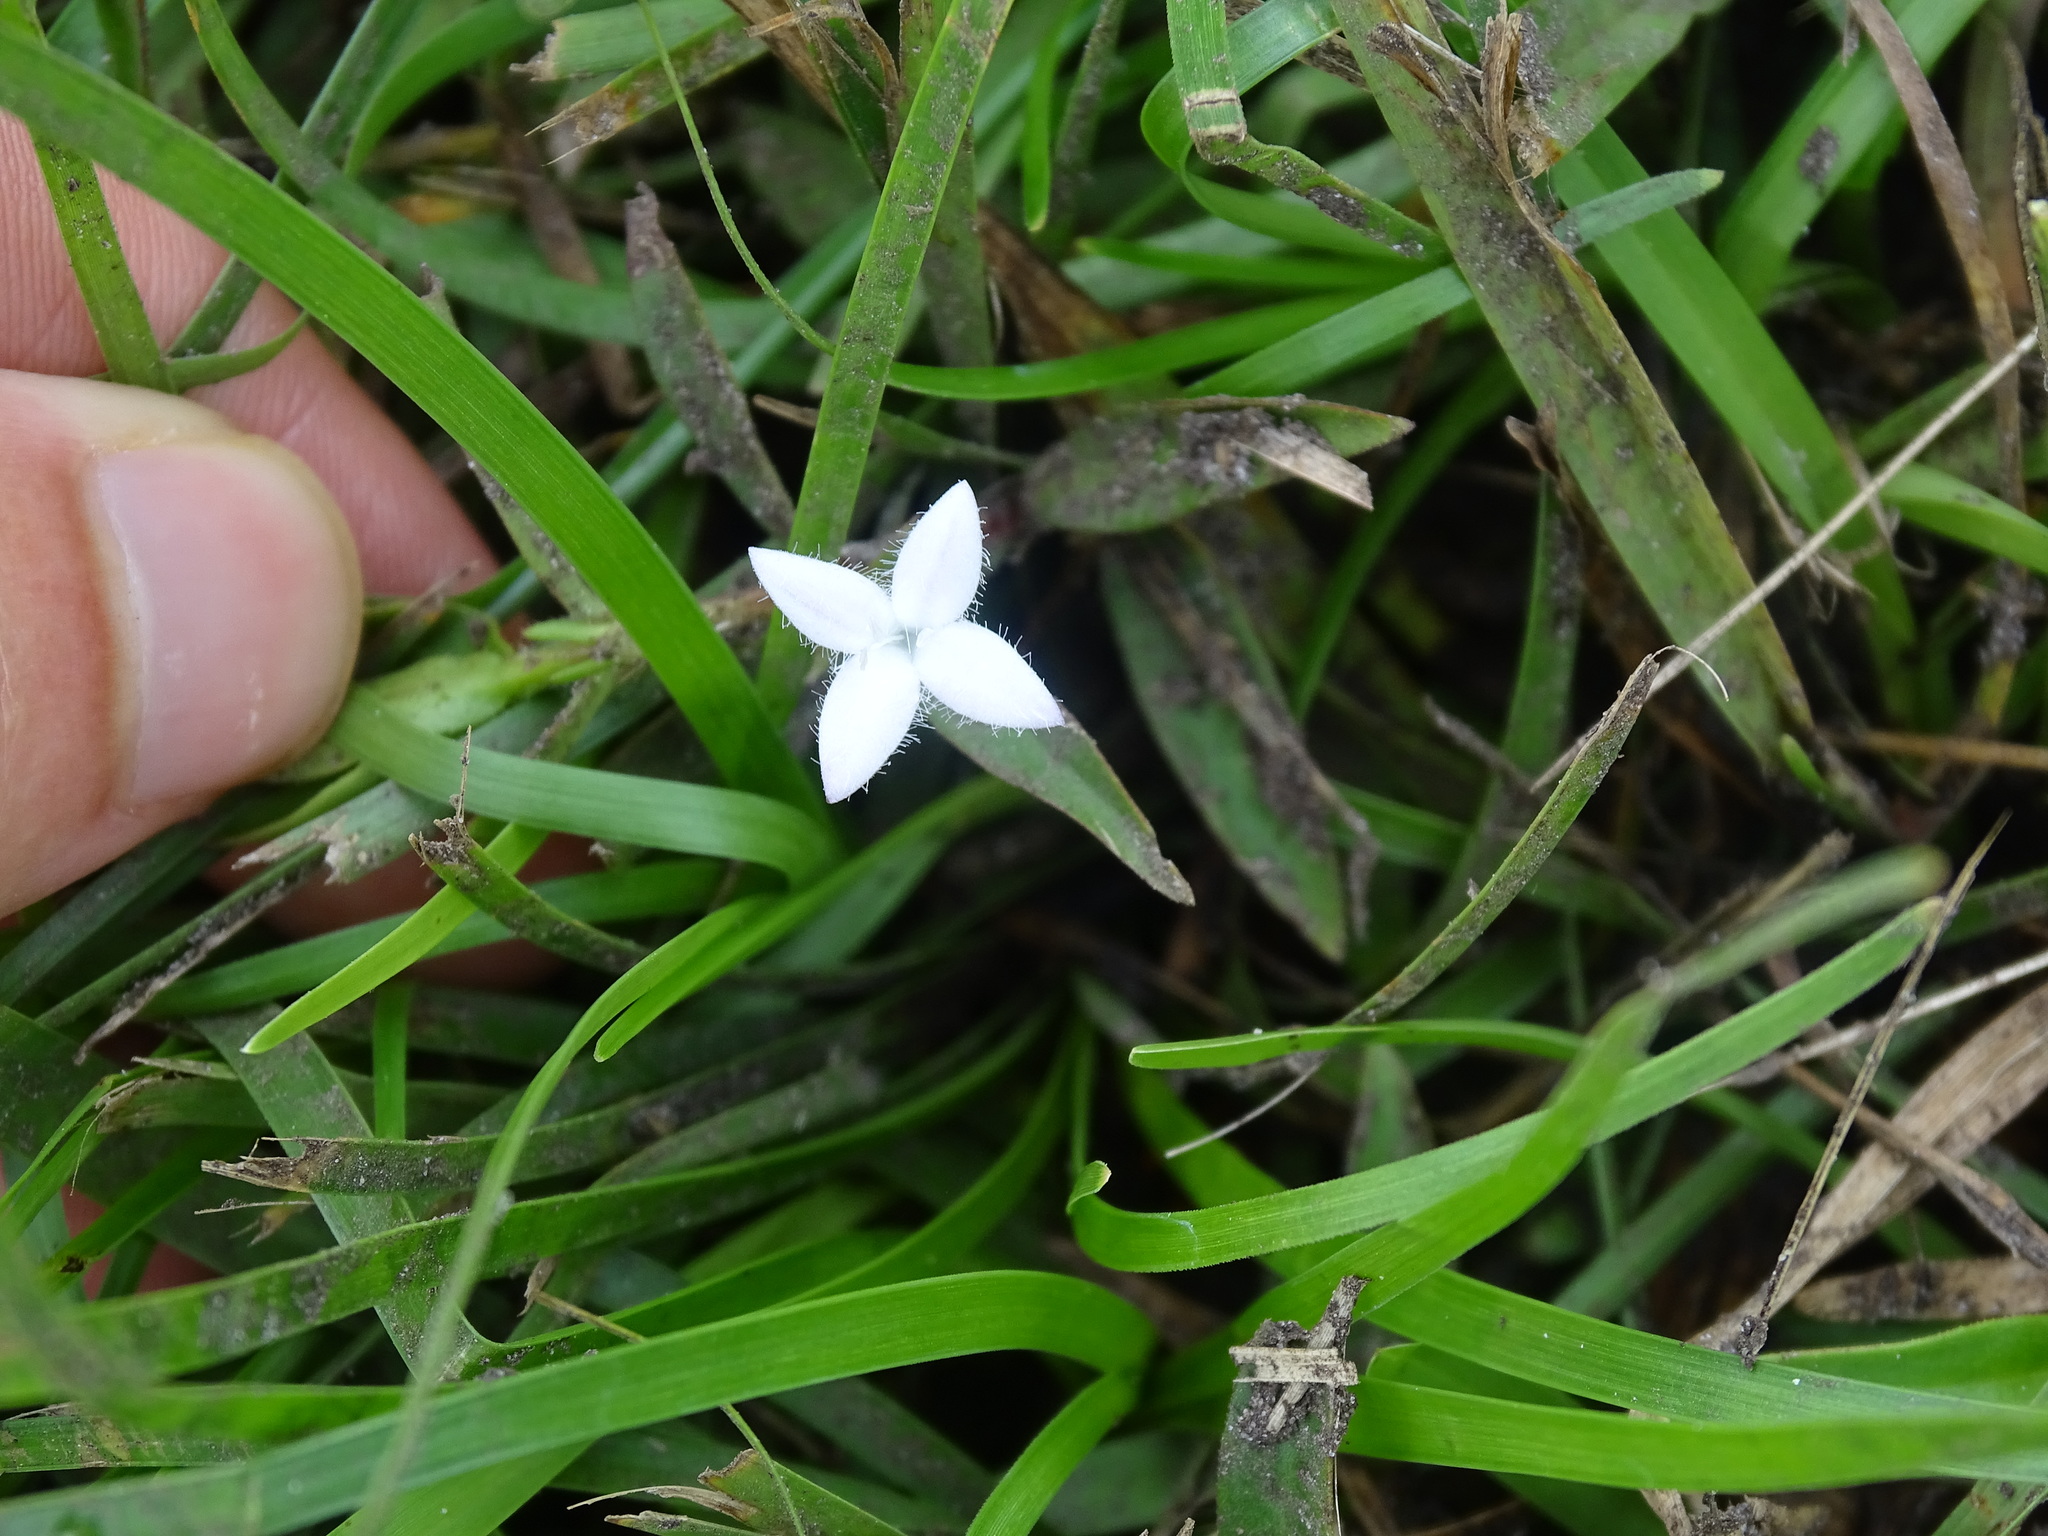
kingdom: Plantae
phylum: Tracheophyta
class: Magnoliopsida
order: Gentianales
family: Rubiaceae
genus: Diodia
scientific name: Diodia virginiana
